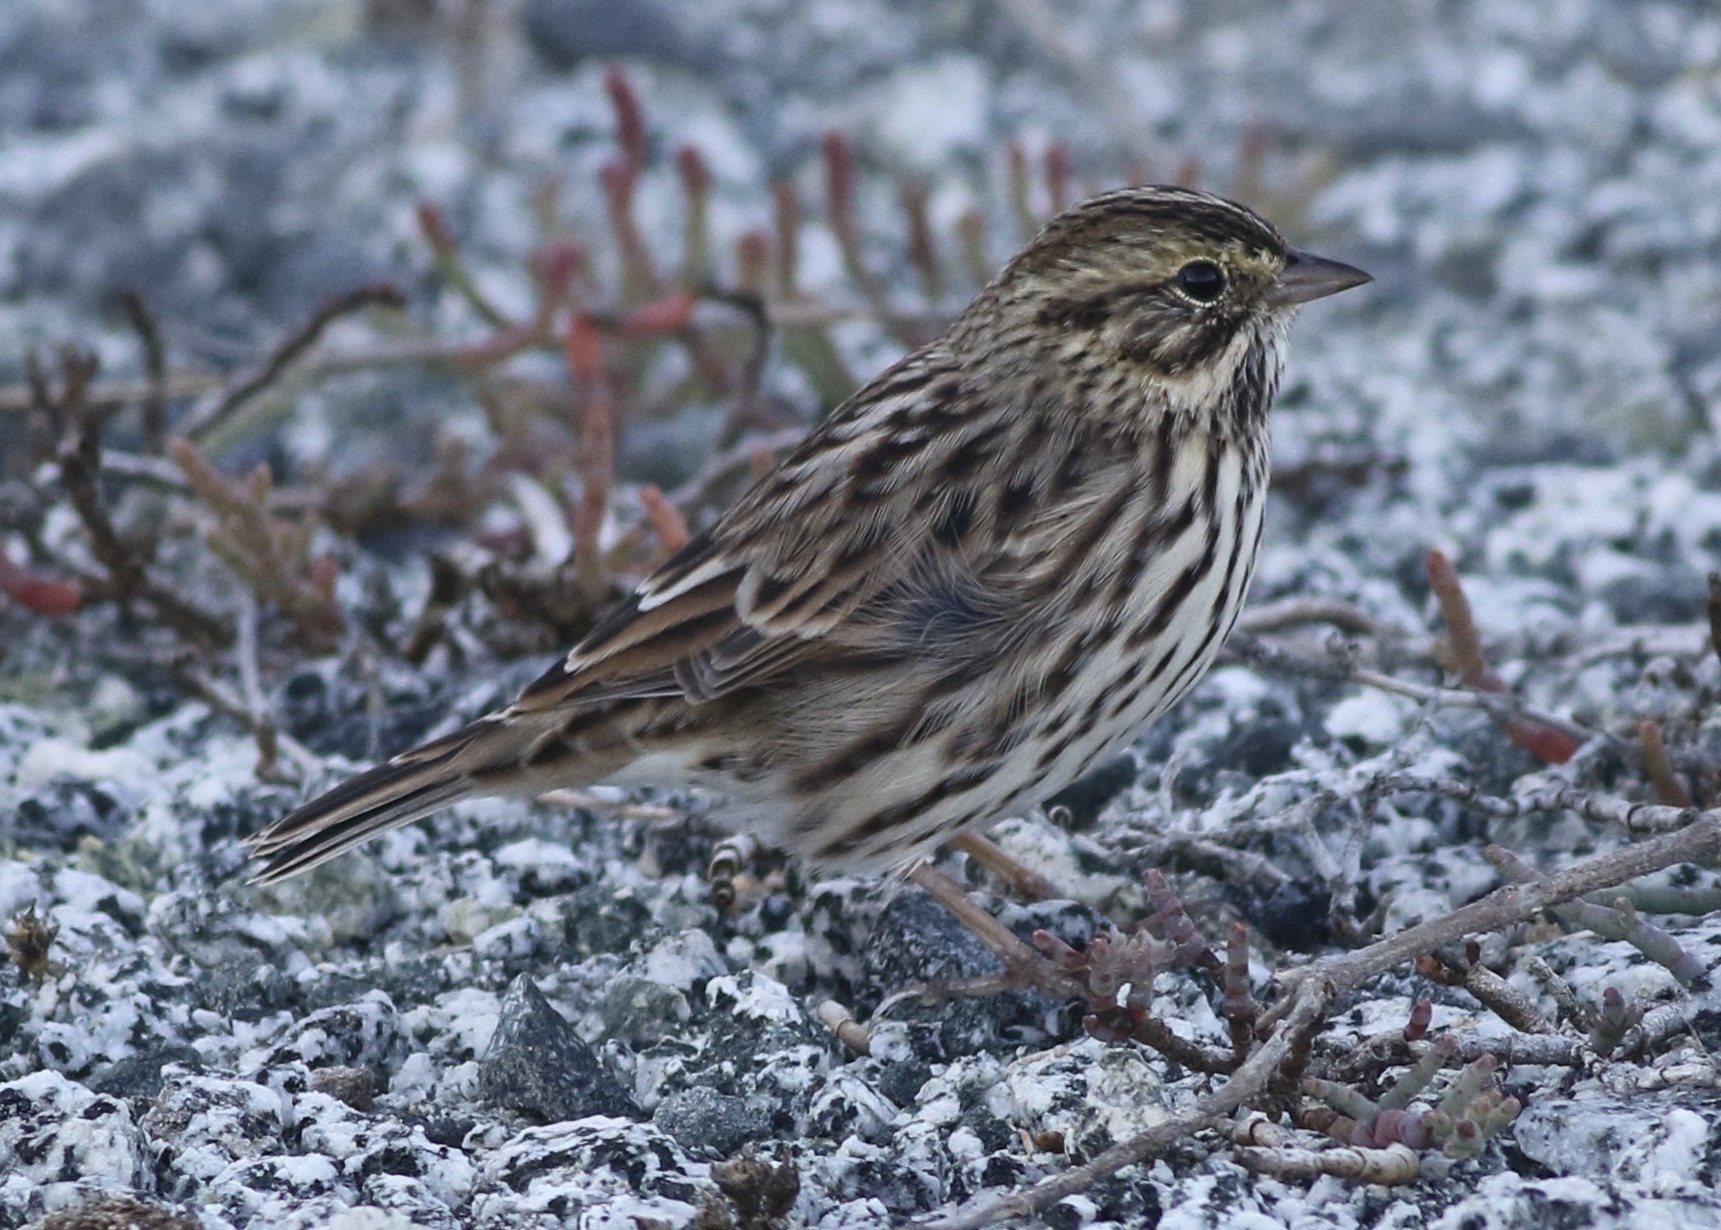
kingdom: Animalia
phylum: Chordata
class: Aves
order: Passeriformes
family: Passerellidae
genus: Passerculus
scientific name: Passerculus sandwichensis
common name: Savannah sparrow
